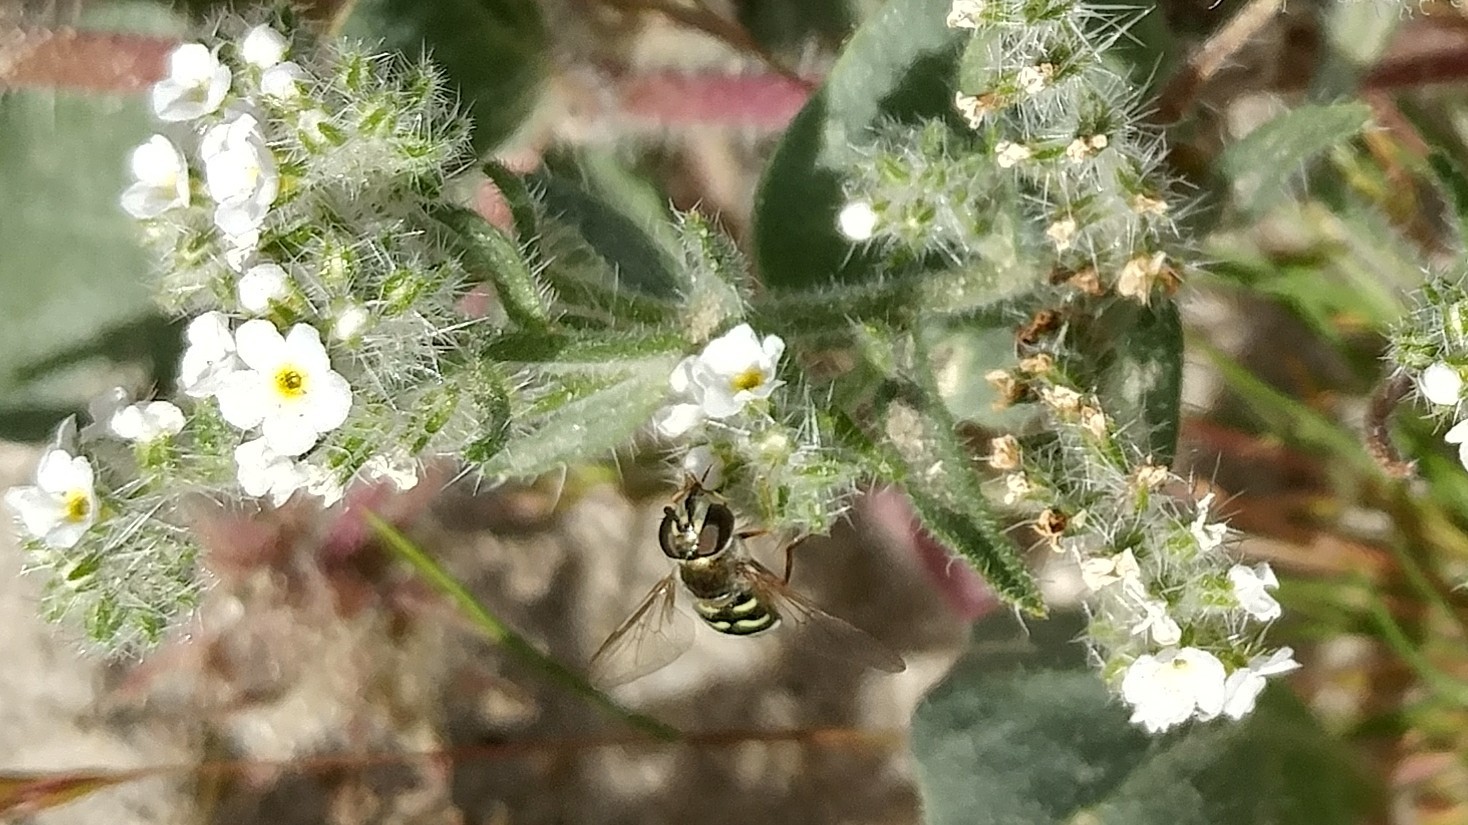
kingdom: Animalia
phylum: Arthropoda
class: Insecta
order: Diptera
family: Syrphidae
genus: Eupeodes
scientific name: Eupeodes volucris
